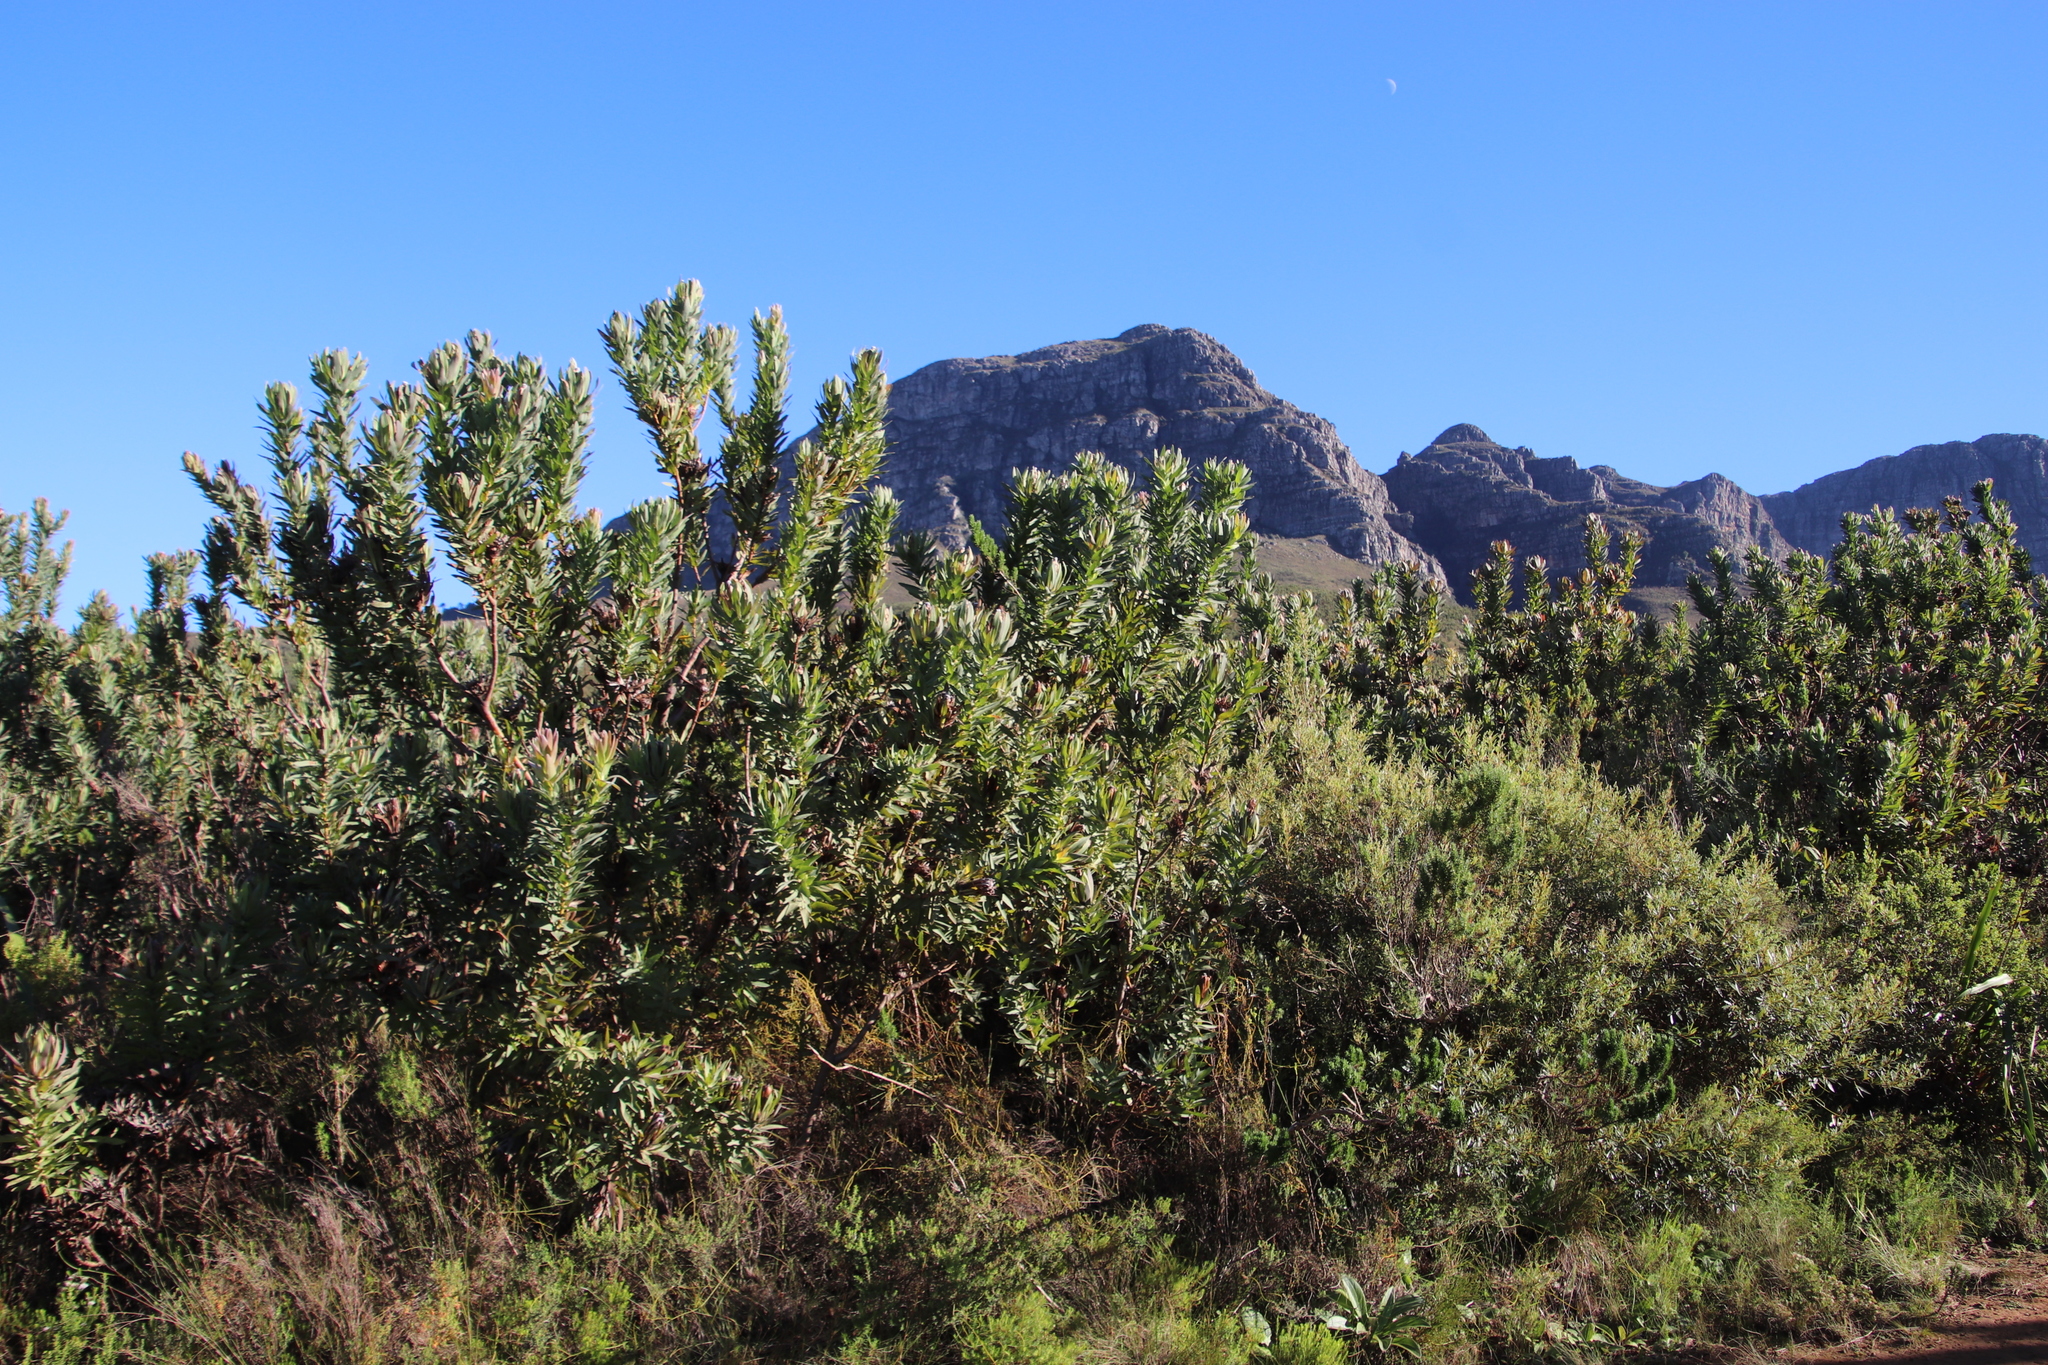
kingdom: Plantae
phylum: Tracheophyta
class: Magnoliopsida
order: Proteales
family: Proteaceae
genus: Protea
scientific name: Protea coronata
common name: Green sugarbush
